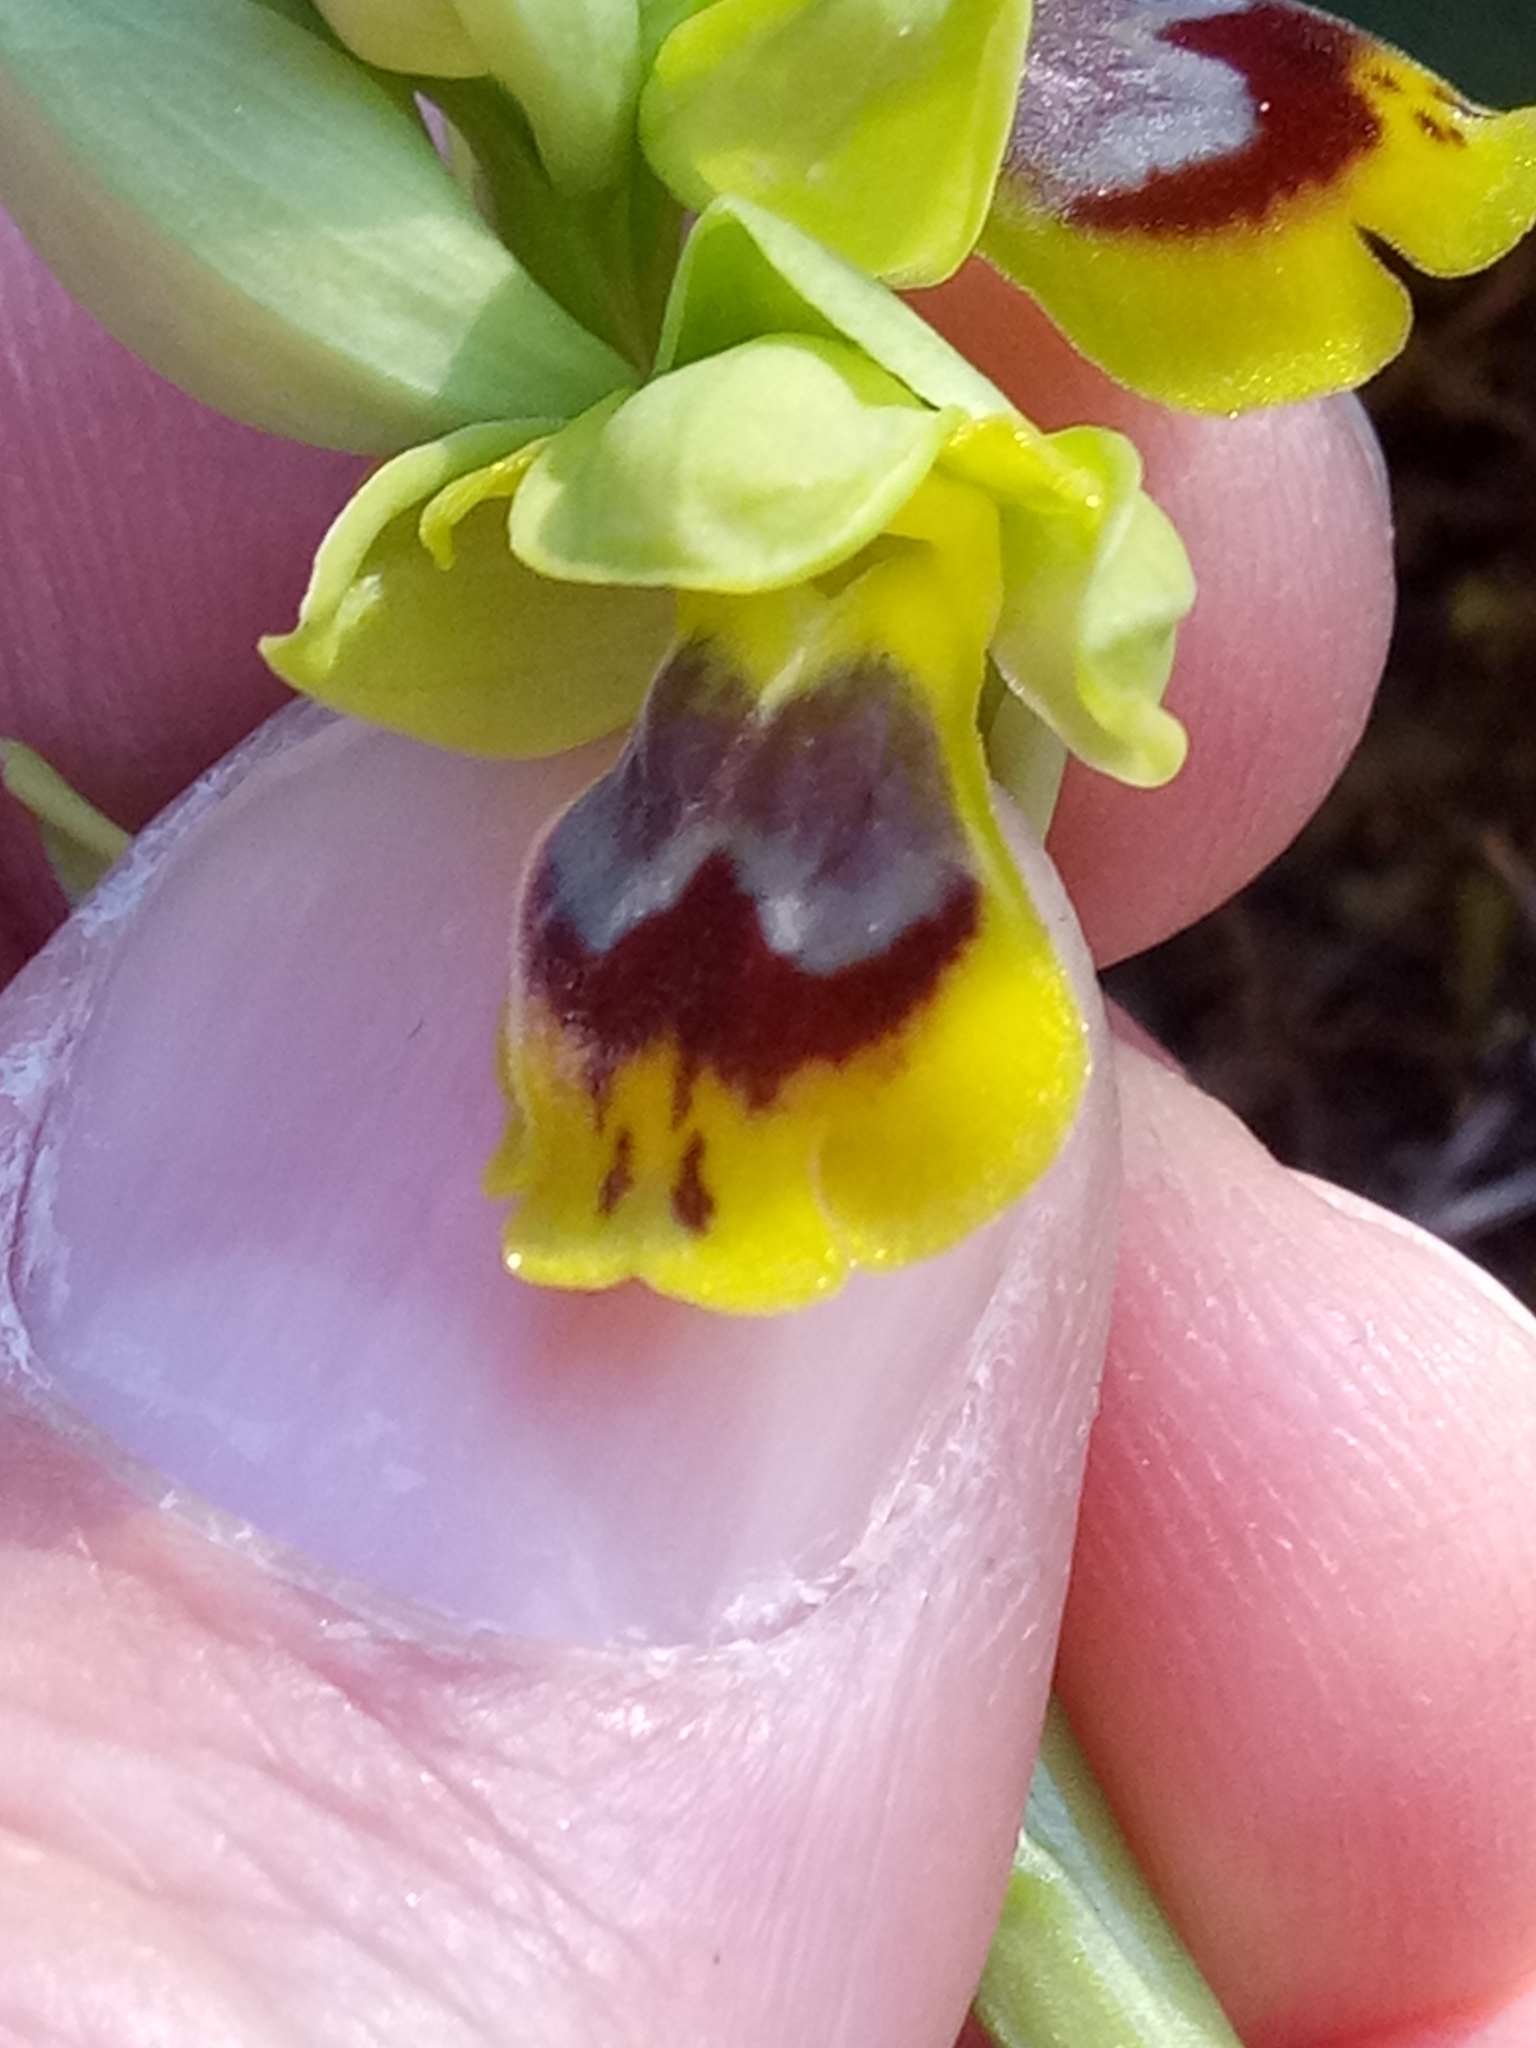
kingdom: Plantae
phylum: Tracheophyta
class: Liliopsida
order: Asparagales
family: Orchidaceae
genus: Ophrys
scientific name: Ophrys battandieri
